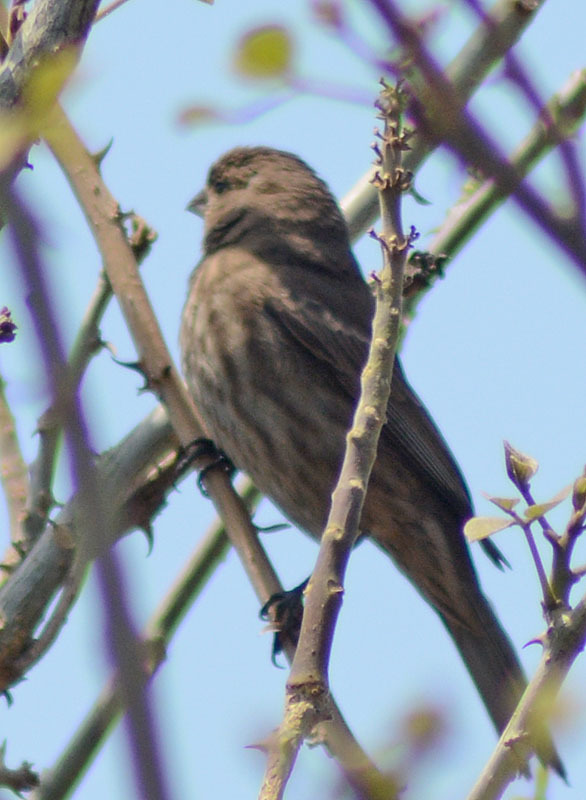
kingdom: Animalia
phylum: Chordata
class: Aves
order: Passeriformes
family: Fringillidae
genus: Haemorhous
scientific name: Haemorhous mexicanus
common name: House finch
